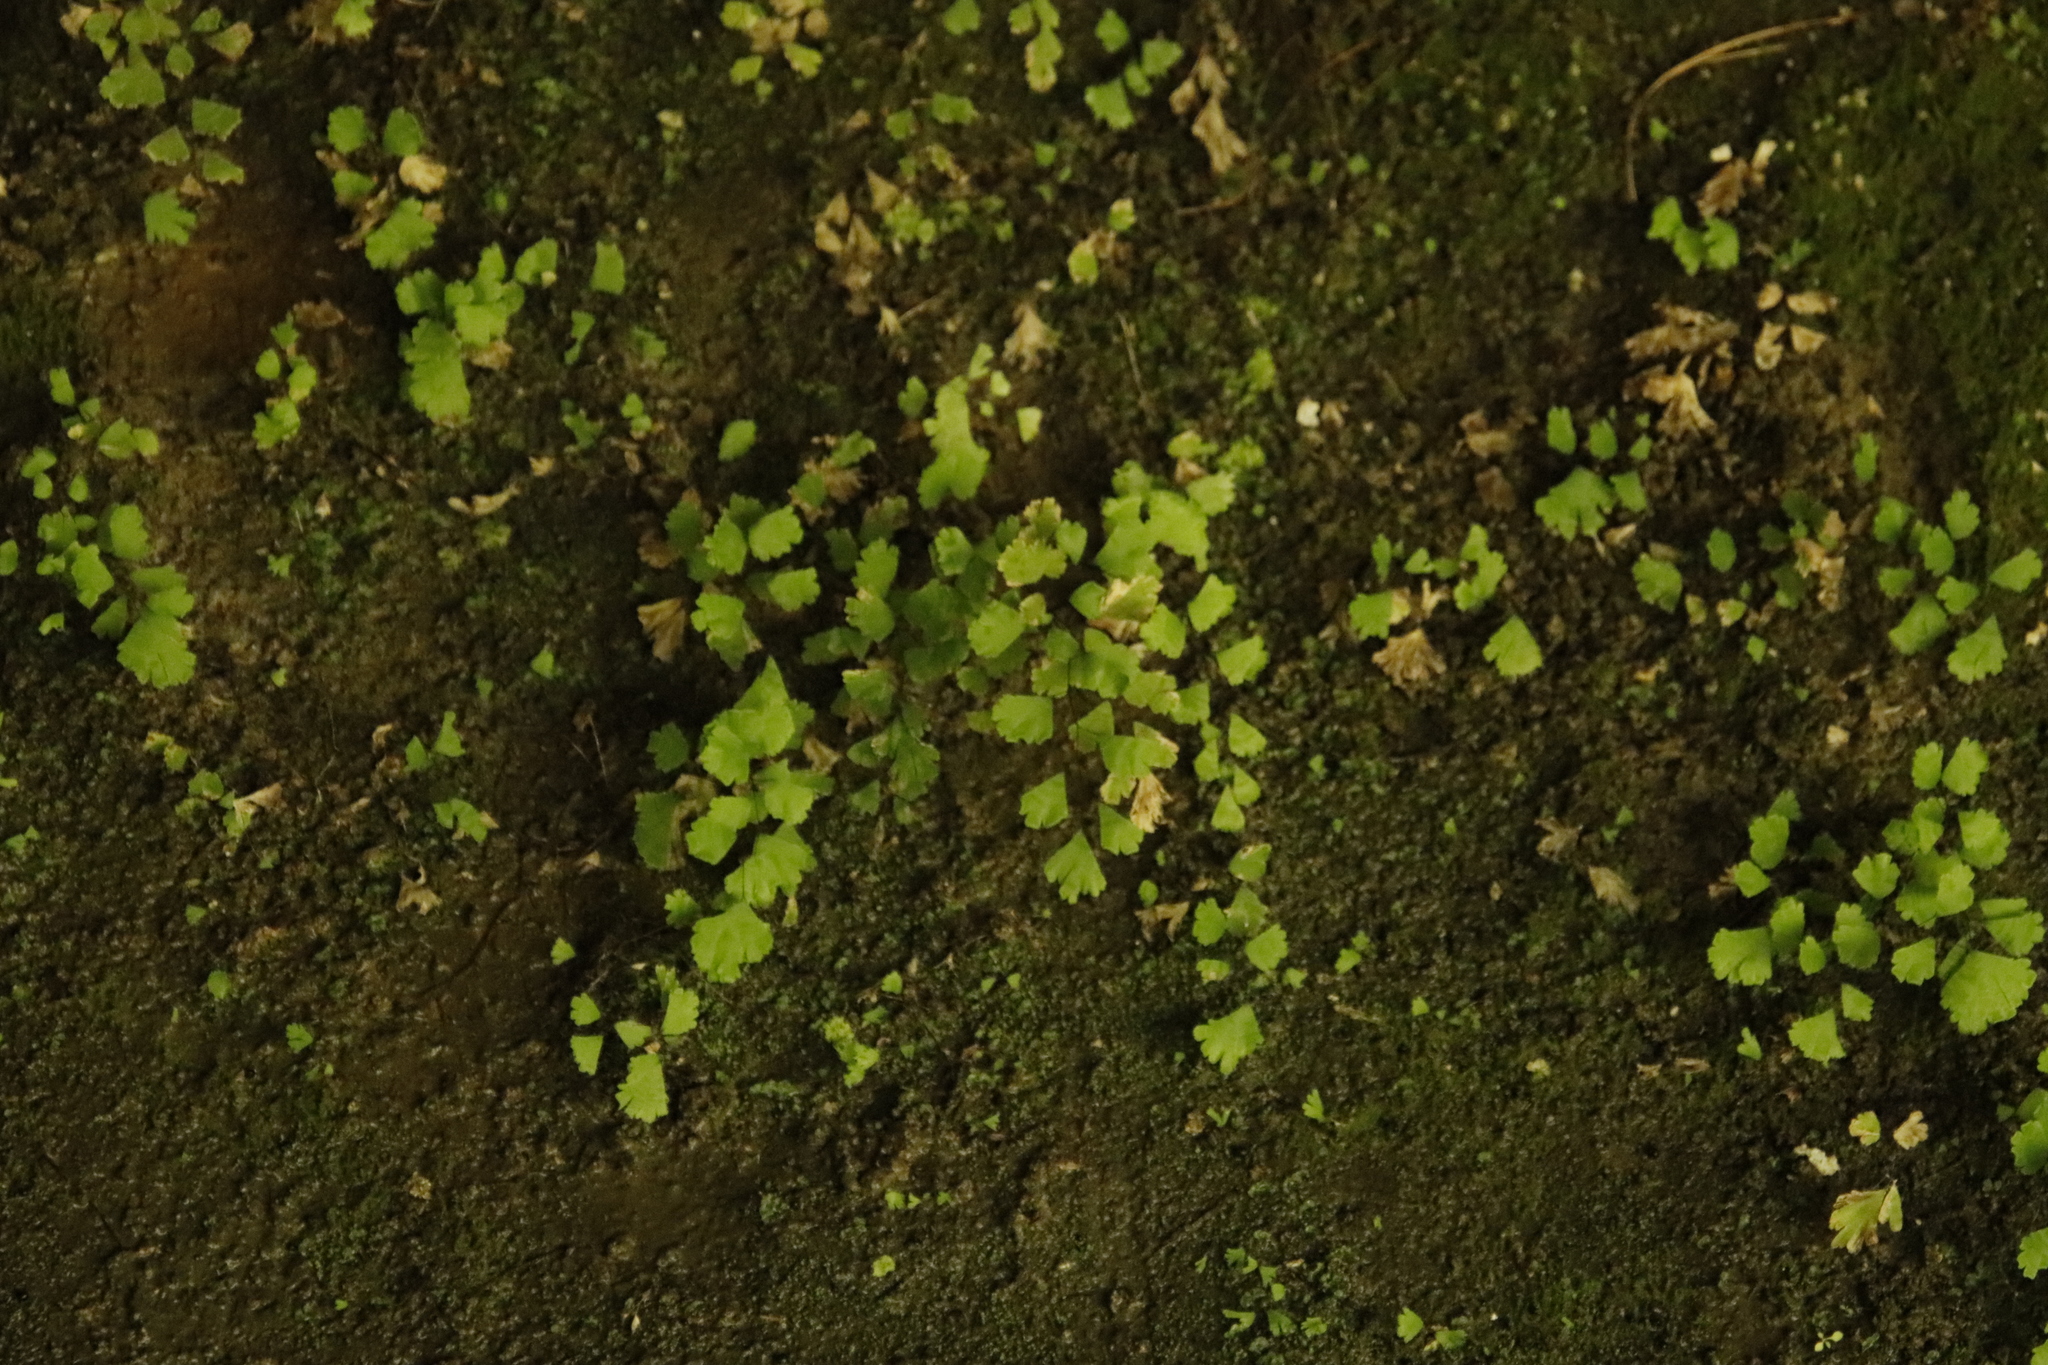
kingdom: Plantae
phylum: Tracheophyta
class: Polypodiopsida
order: Polypodiales
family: Pteridaceae
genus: Adiantum
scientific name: Adiantum capillus-veneris
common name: Maidenhair fern
